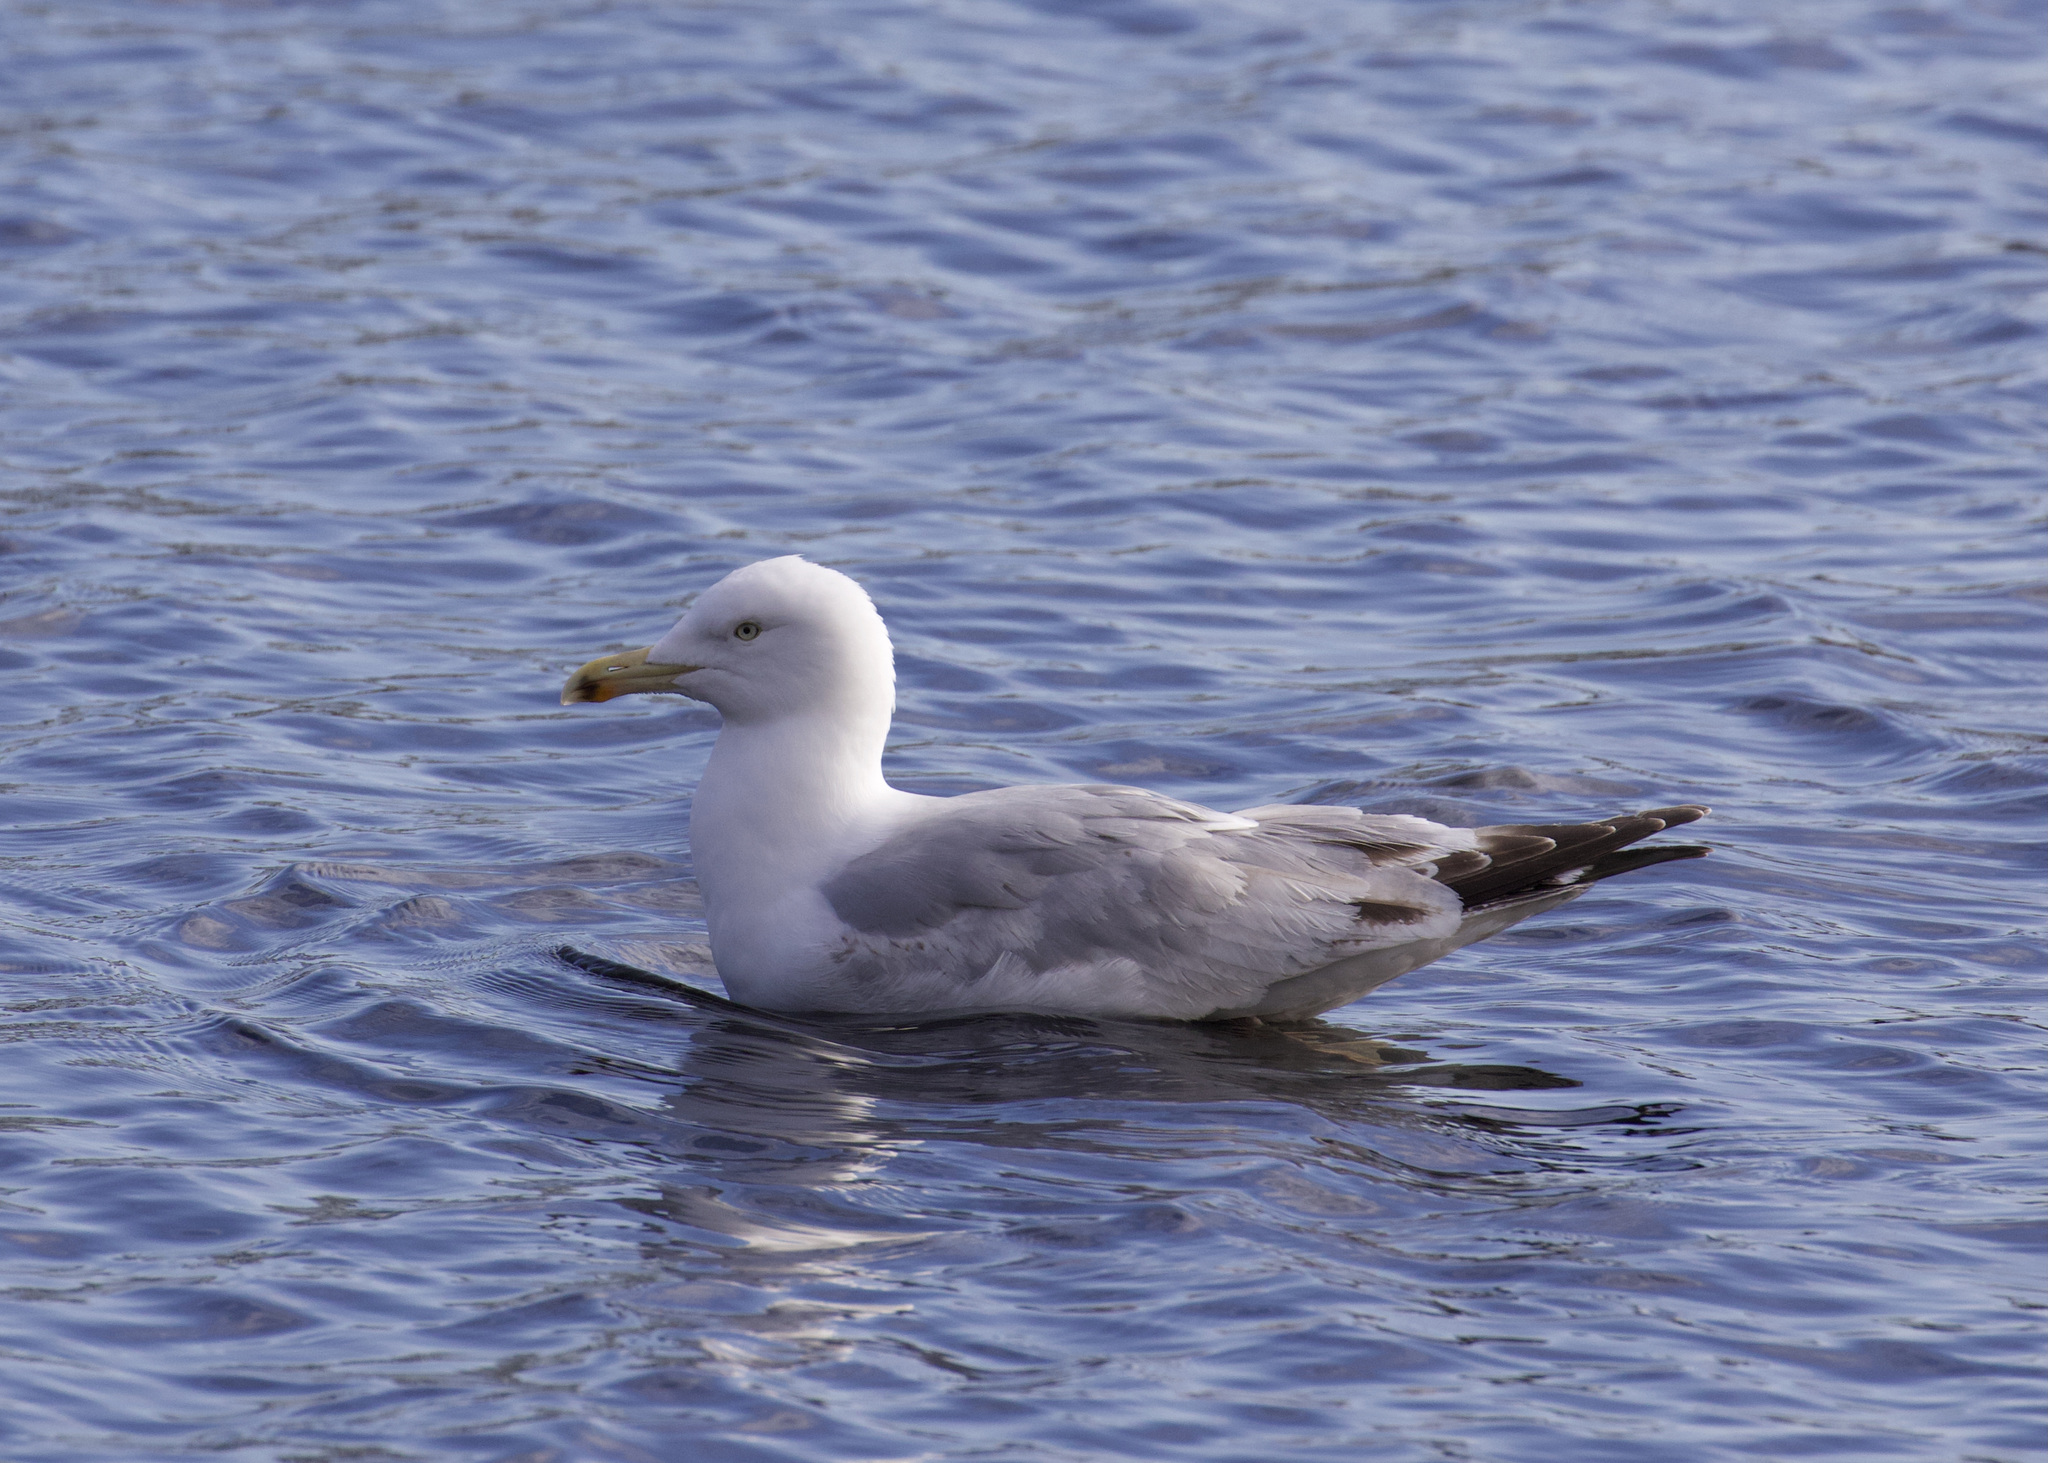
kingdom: Animalia
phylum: Chordata
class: Aves
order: Charadriiformes
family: Laridae
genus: Larus
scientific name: Larus argentatus
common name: Herring gull
